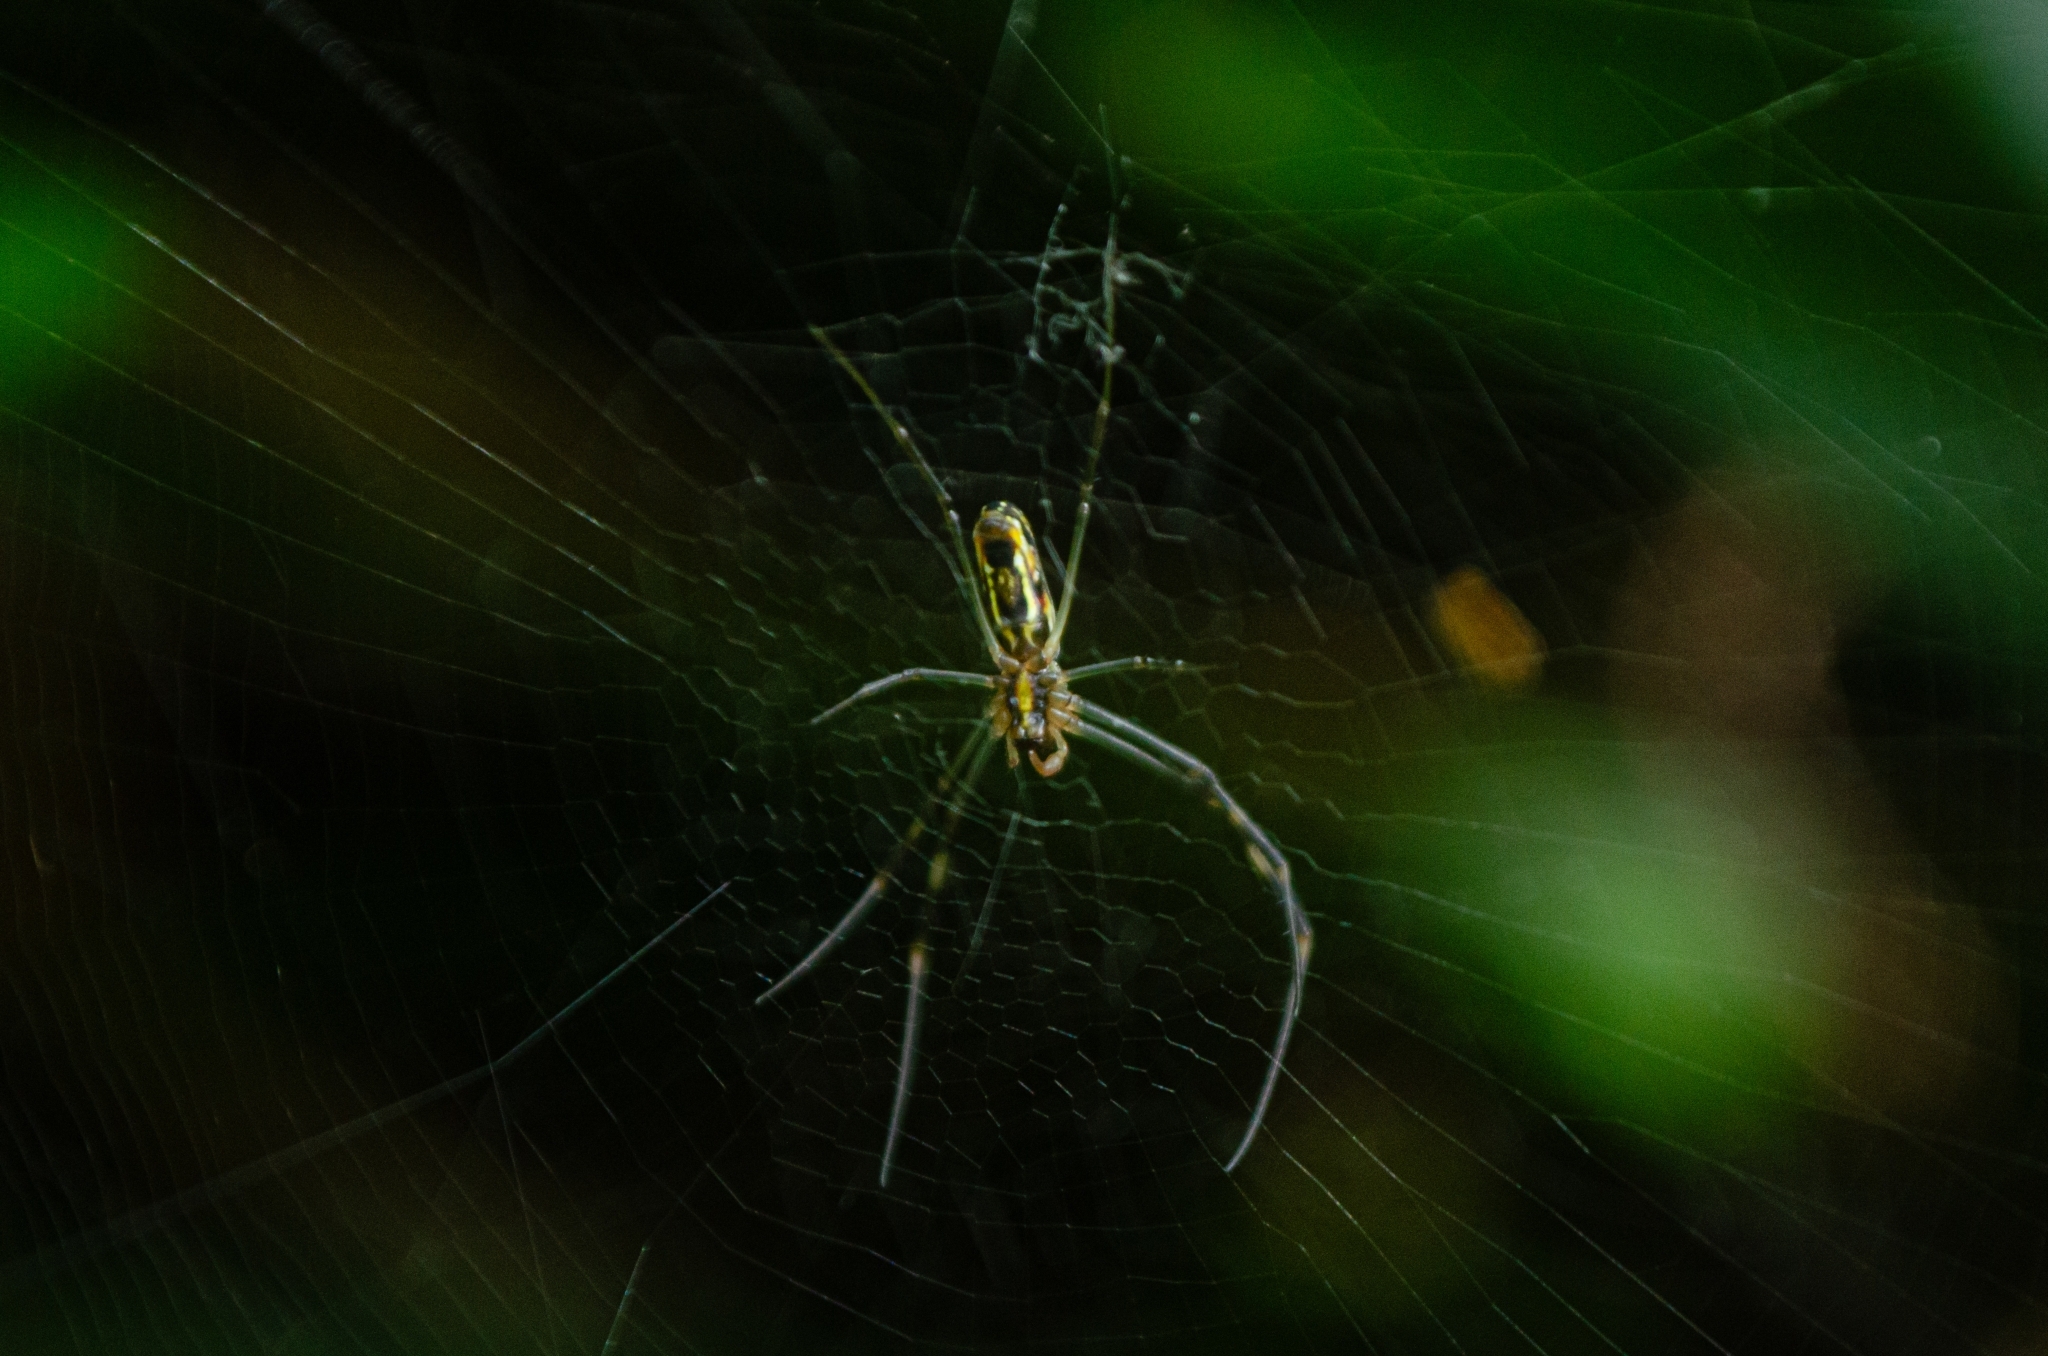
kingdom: Animalia
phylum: Arthropoda
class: Arachnida
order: Araneae
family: Araneidae
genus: Trichonephila
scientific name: Trichonephila clavipes
